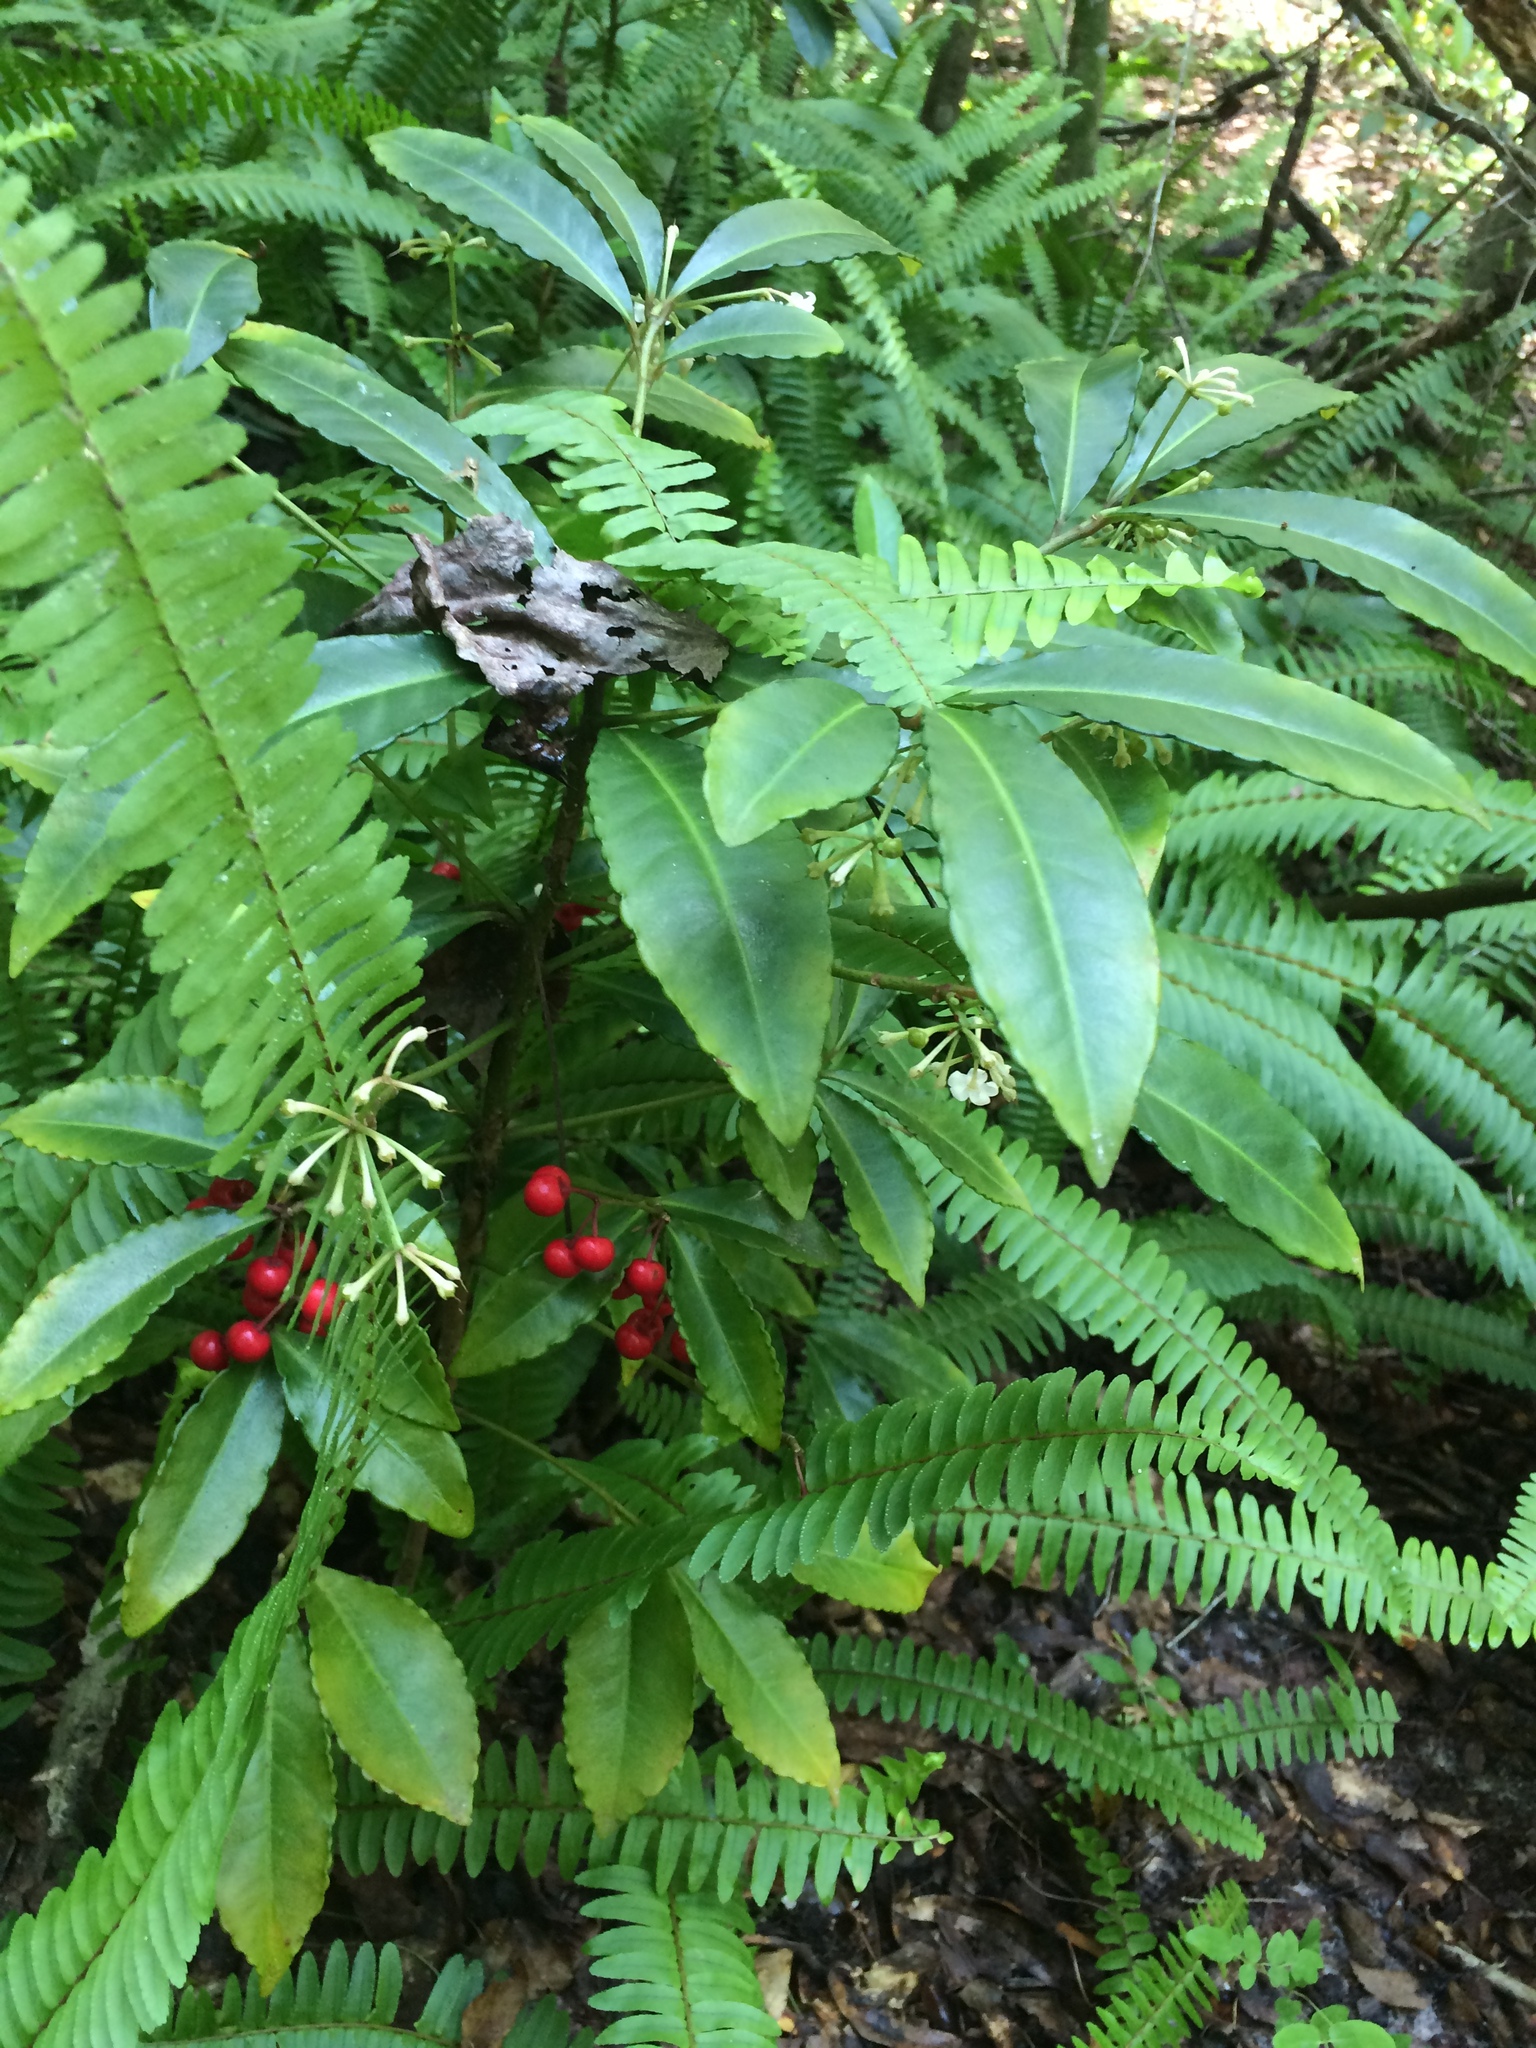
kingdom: Plantae
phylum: Tracheophyta
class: Magnoliopsida
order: Ericales
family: Primulaceae
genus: Ardisia
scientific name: Ardisia crenata
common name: Hen's eyes
